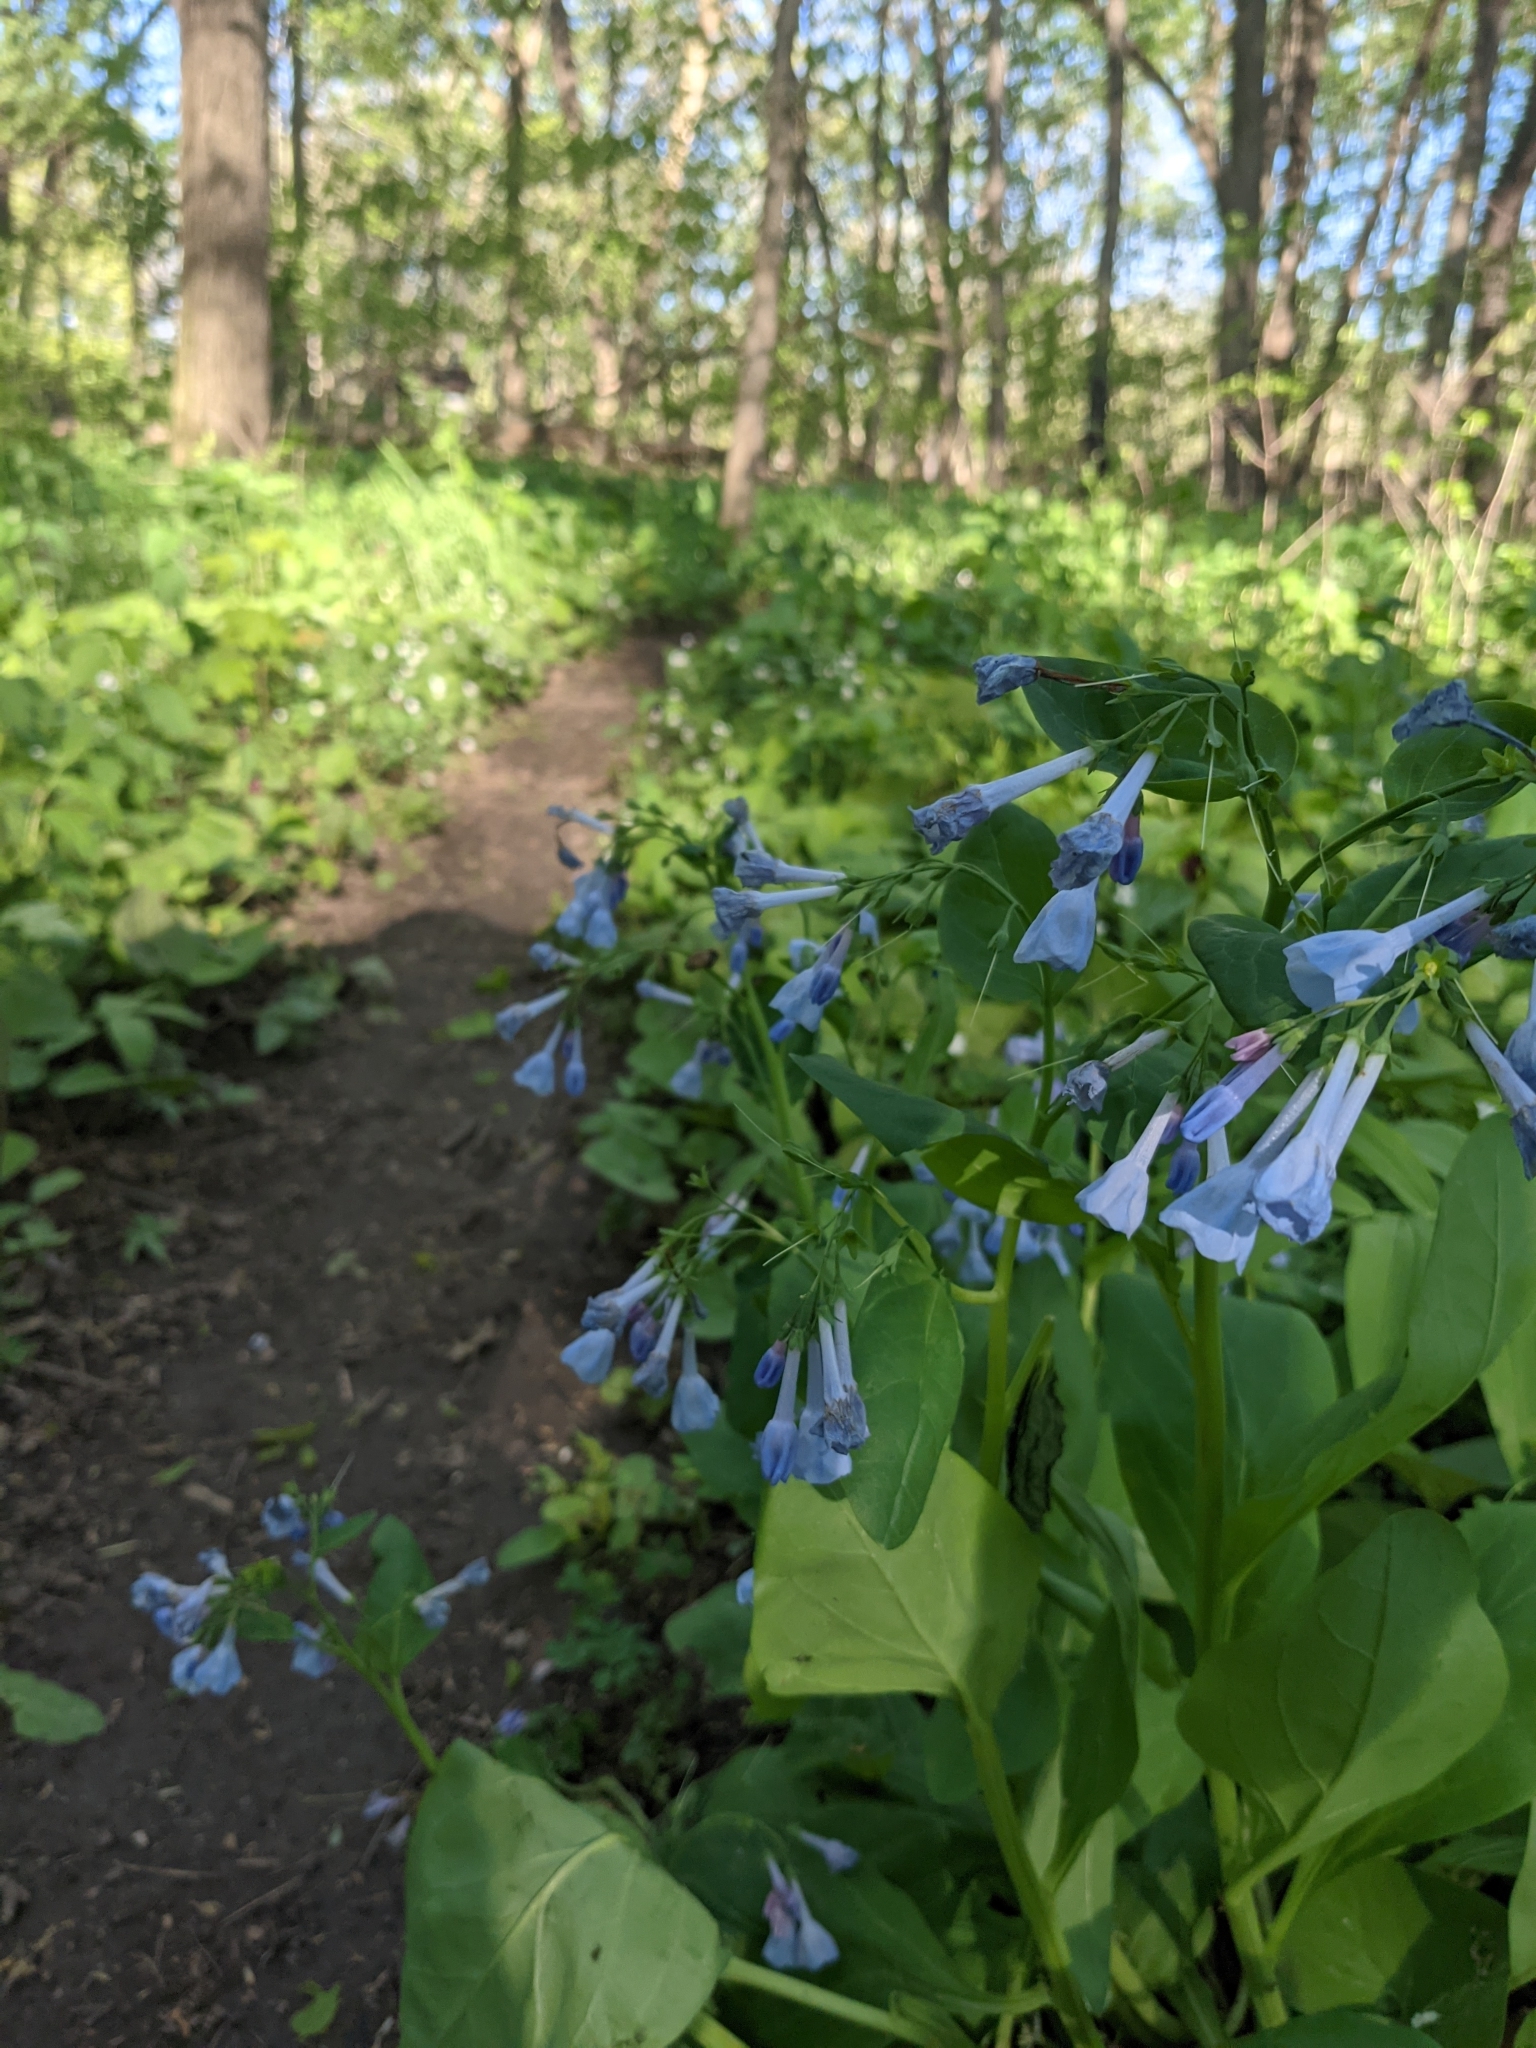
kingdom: Plantae
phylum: Tracheophyta
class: Magnoliopsida
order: Boraginales
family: Boraginaceae
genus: Mertensia
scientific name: Mertensia virginica
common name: Virginia bluebells
